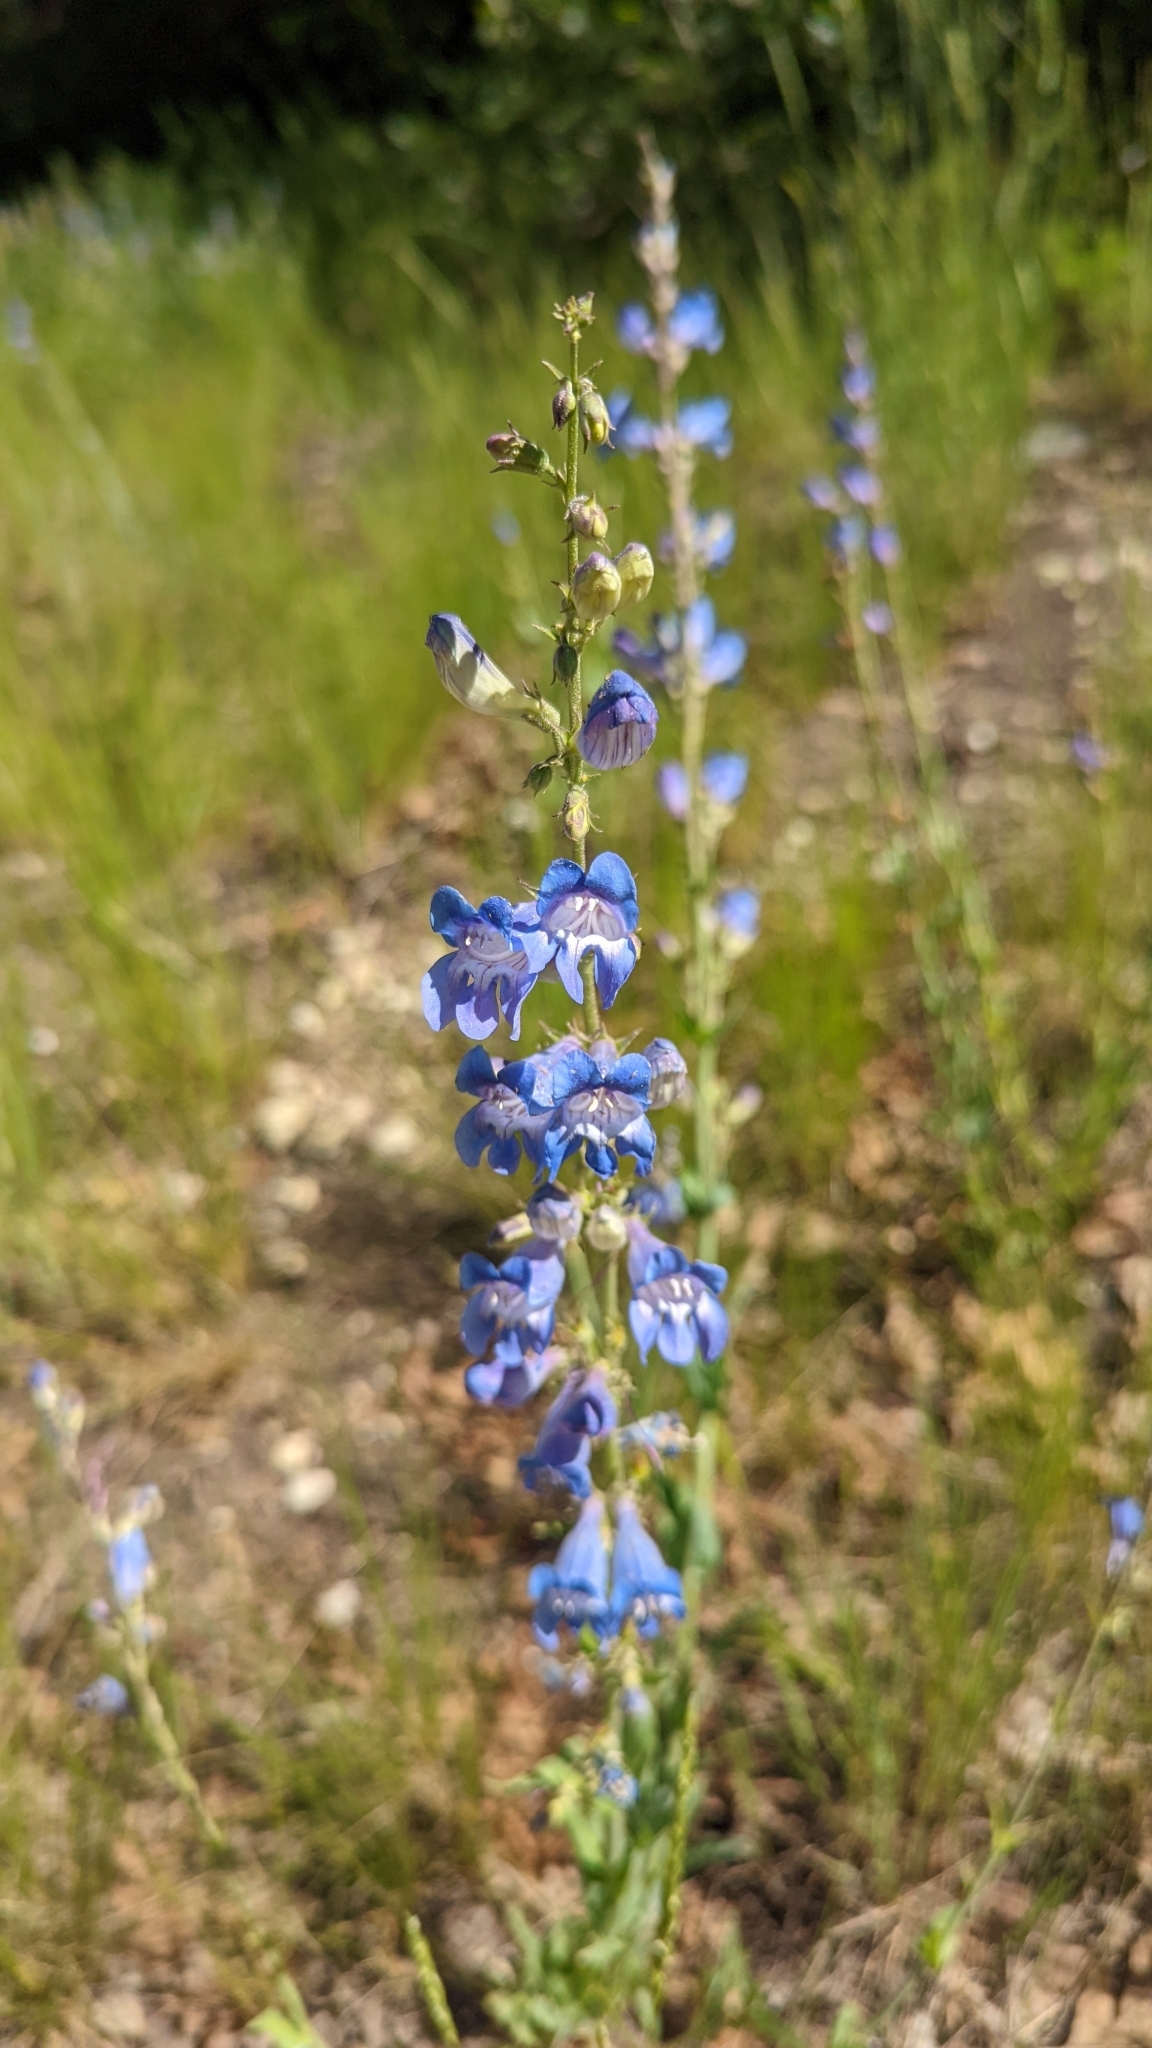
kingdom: Plantae
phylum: Tracheophyta
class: Magnoliopsida
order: Lamiales
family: Plantaginaceae
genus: Penstemon
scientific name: Penstemon leiophyllus
